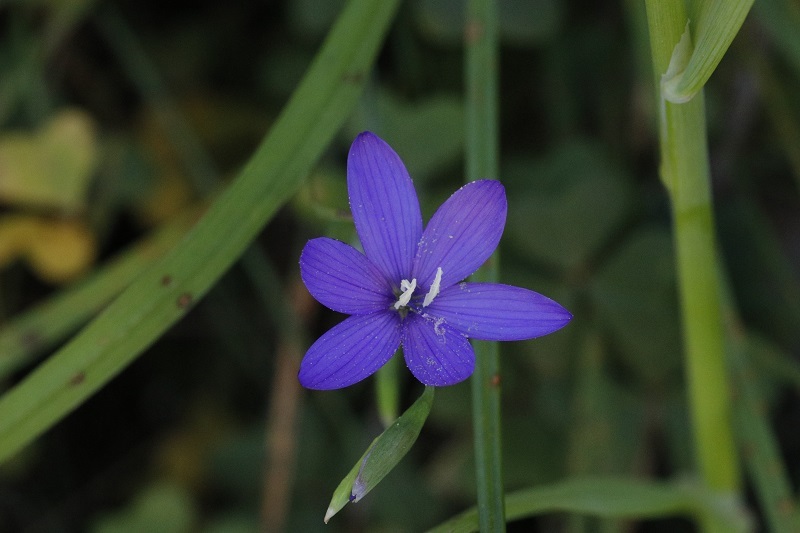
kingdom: Plantae
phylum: Tracheophyta
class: Liliopsida
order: Asparagales
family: Iridaceae
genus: Geissorhiza
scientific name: Geissorhiza aspera
